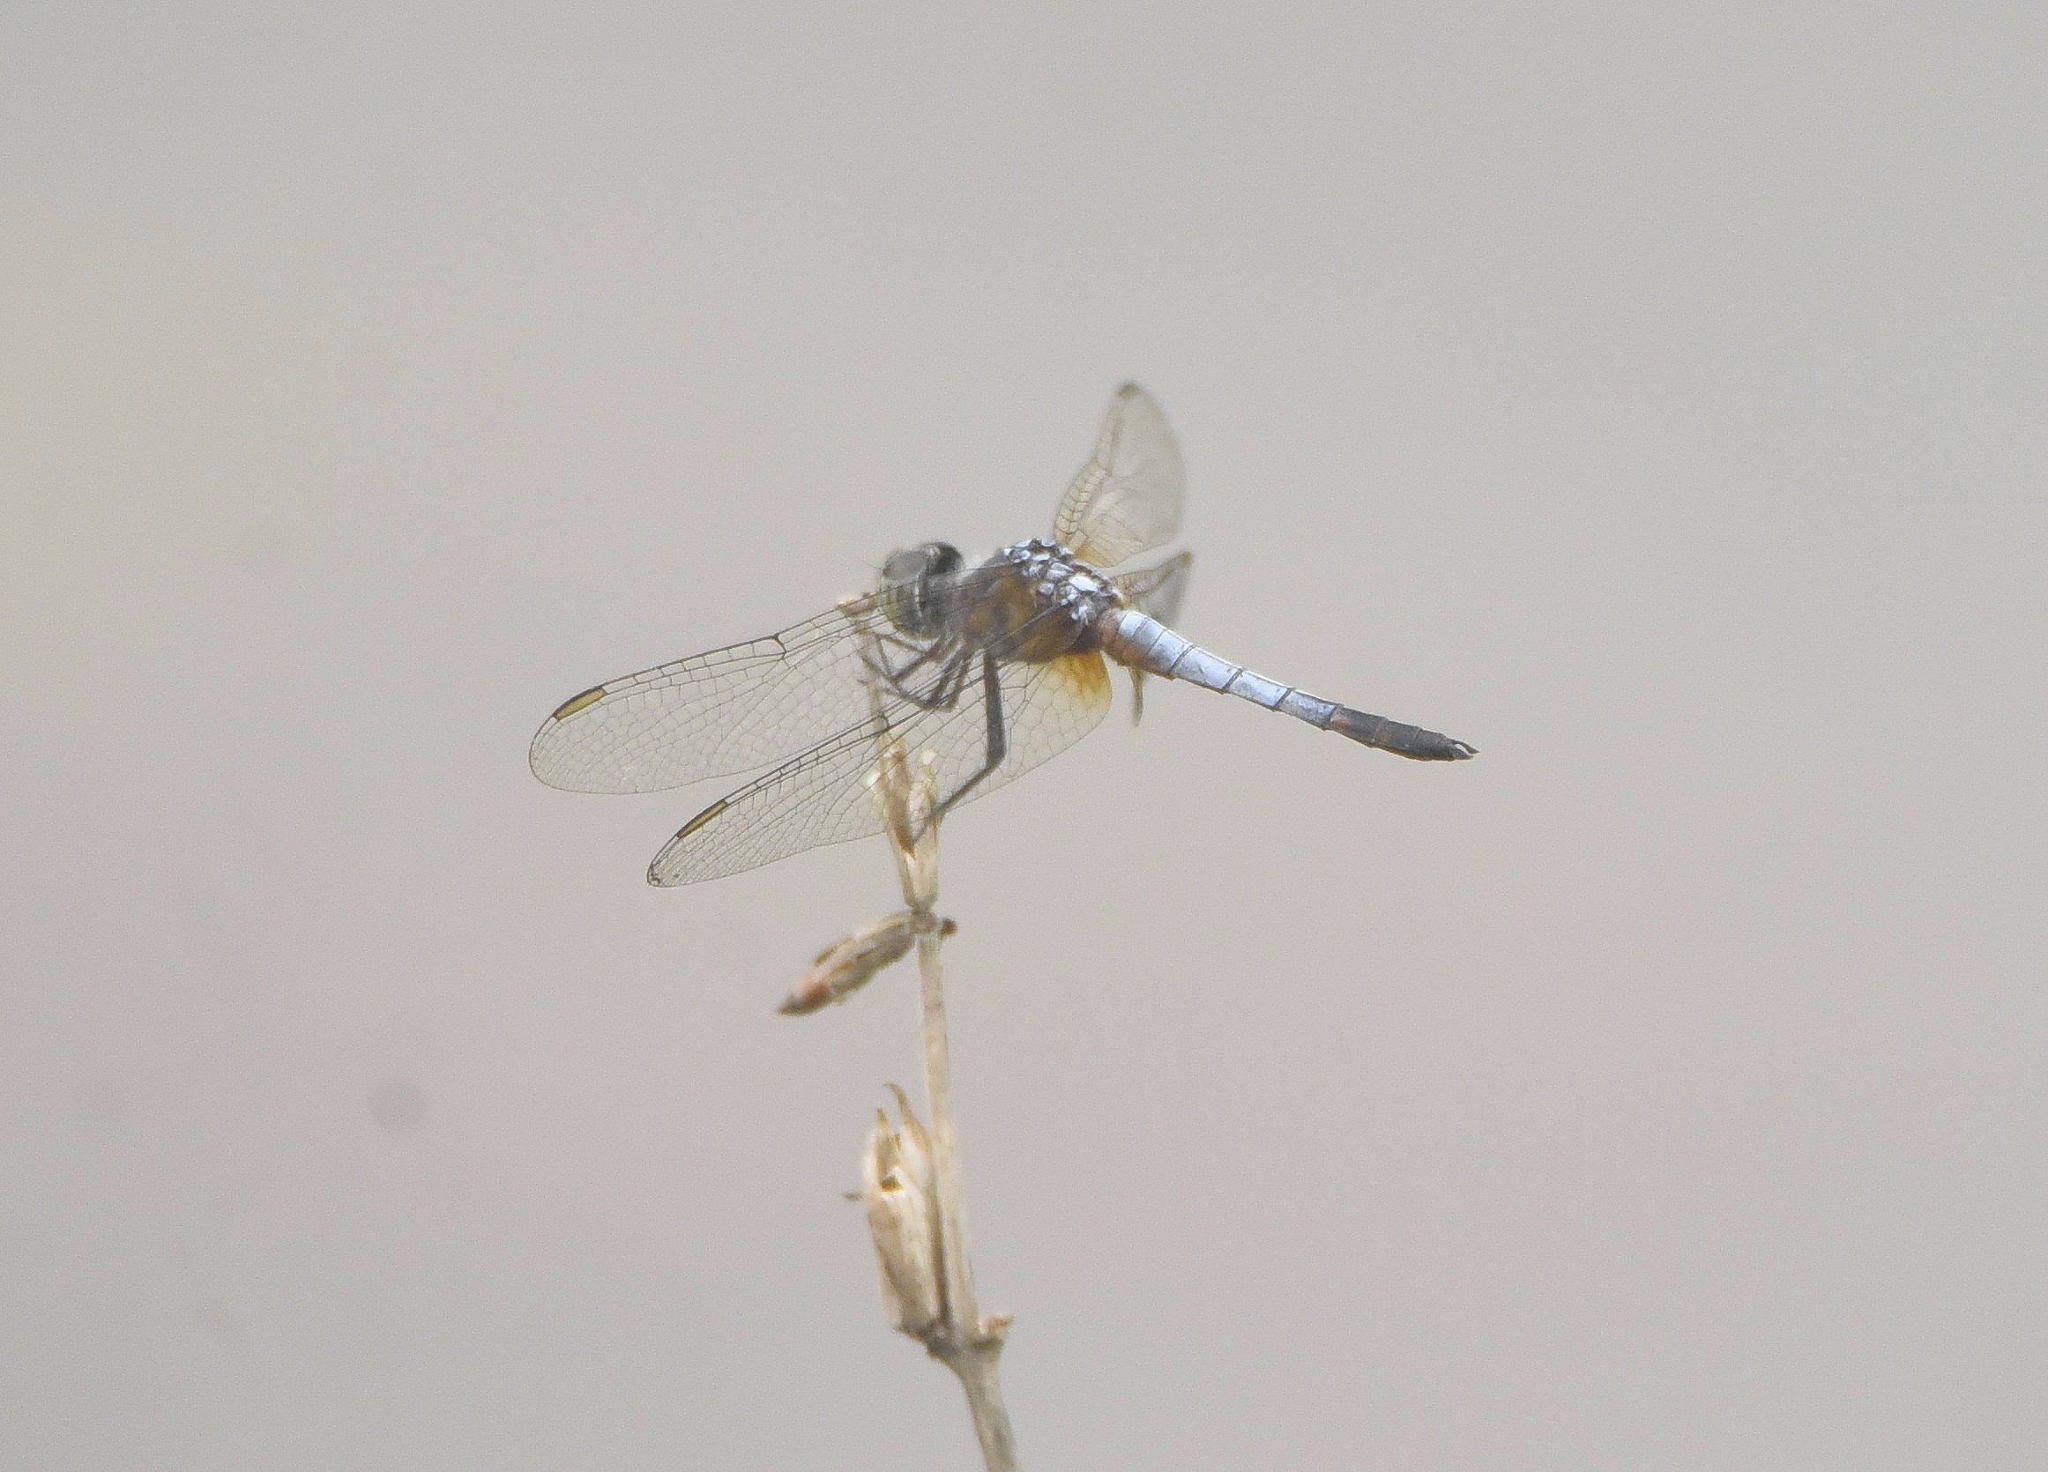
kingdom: Animalia
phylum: Arthropoda
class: Insecta
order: Odonata
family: Libellulidae
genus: Brachydiplax
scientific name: Brachydiplax chalybea
